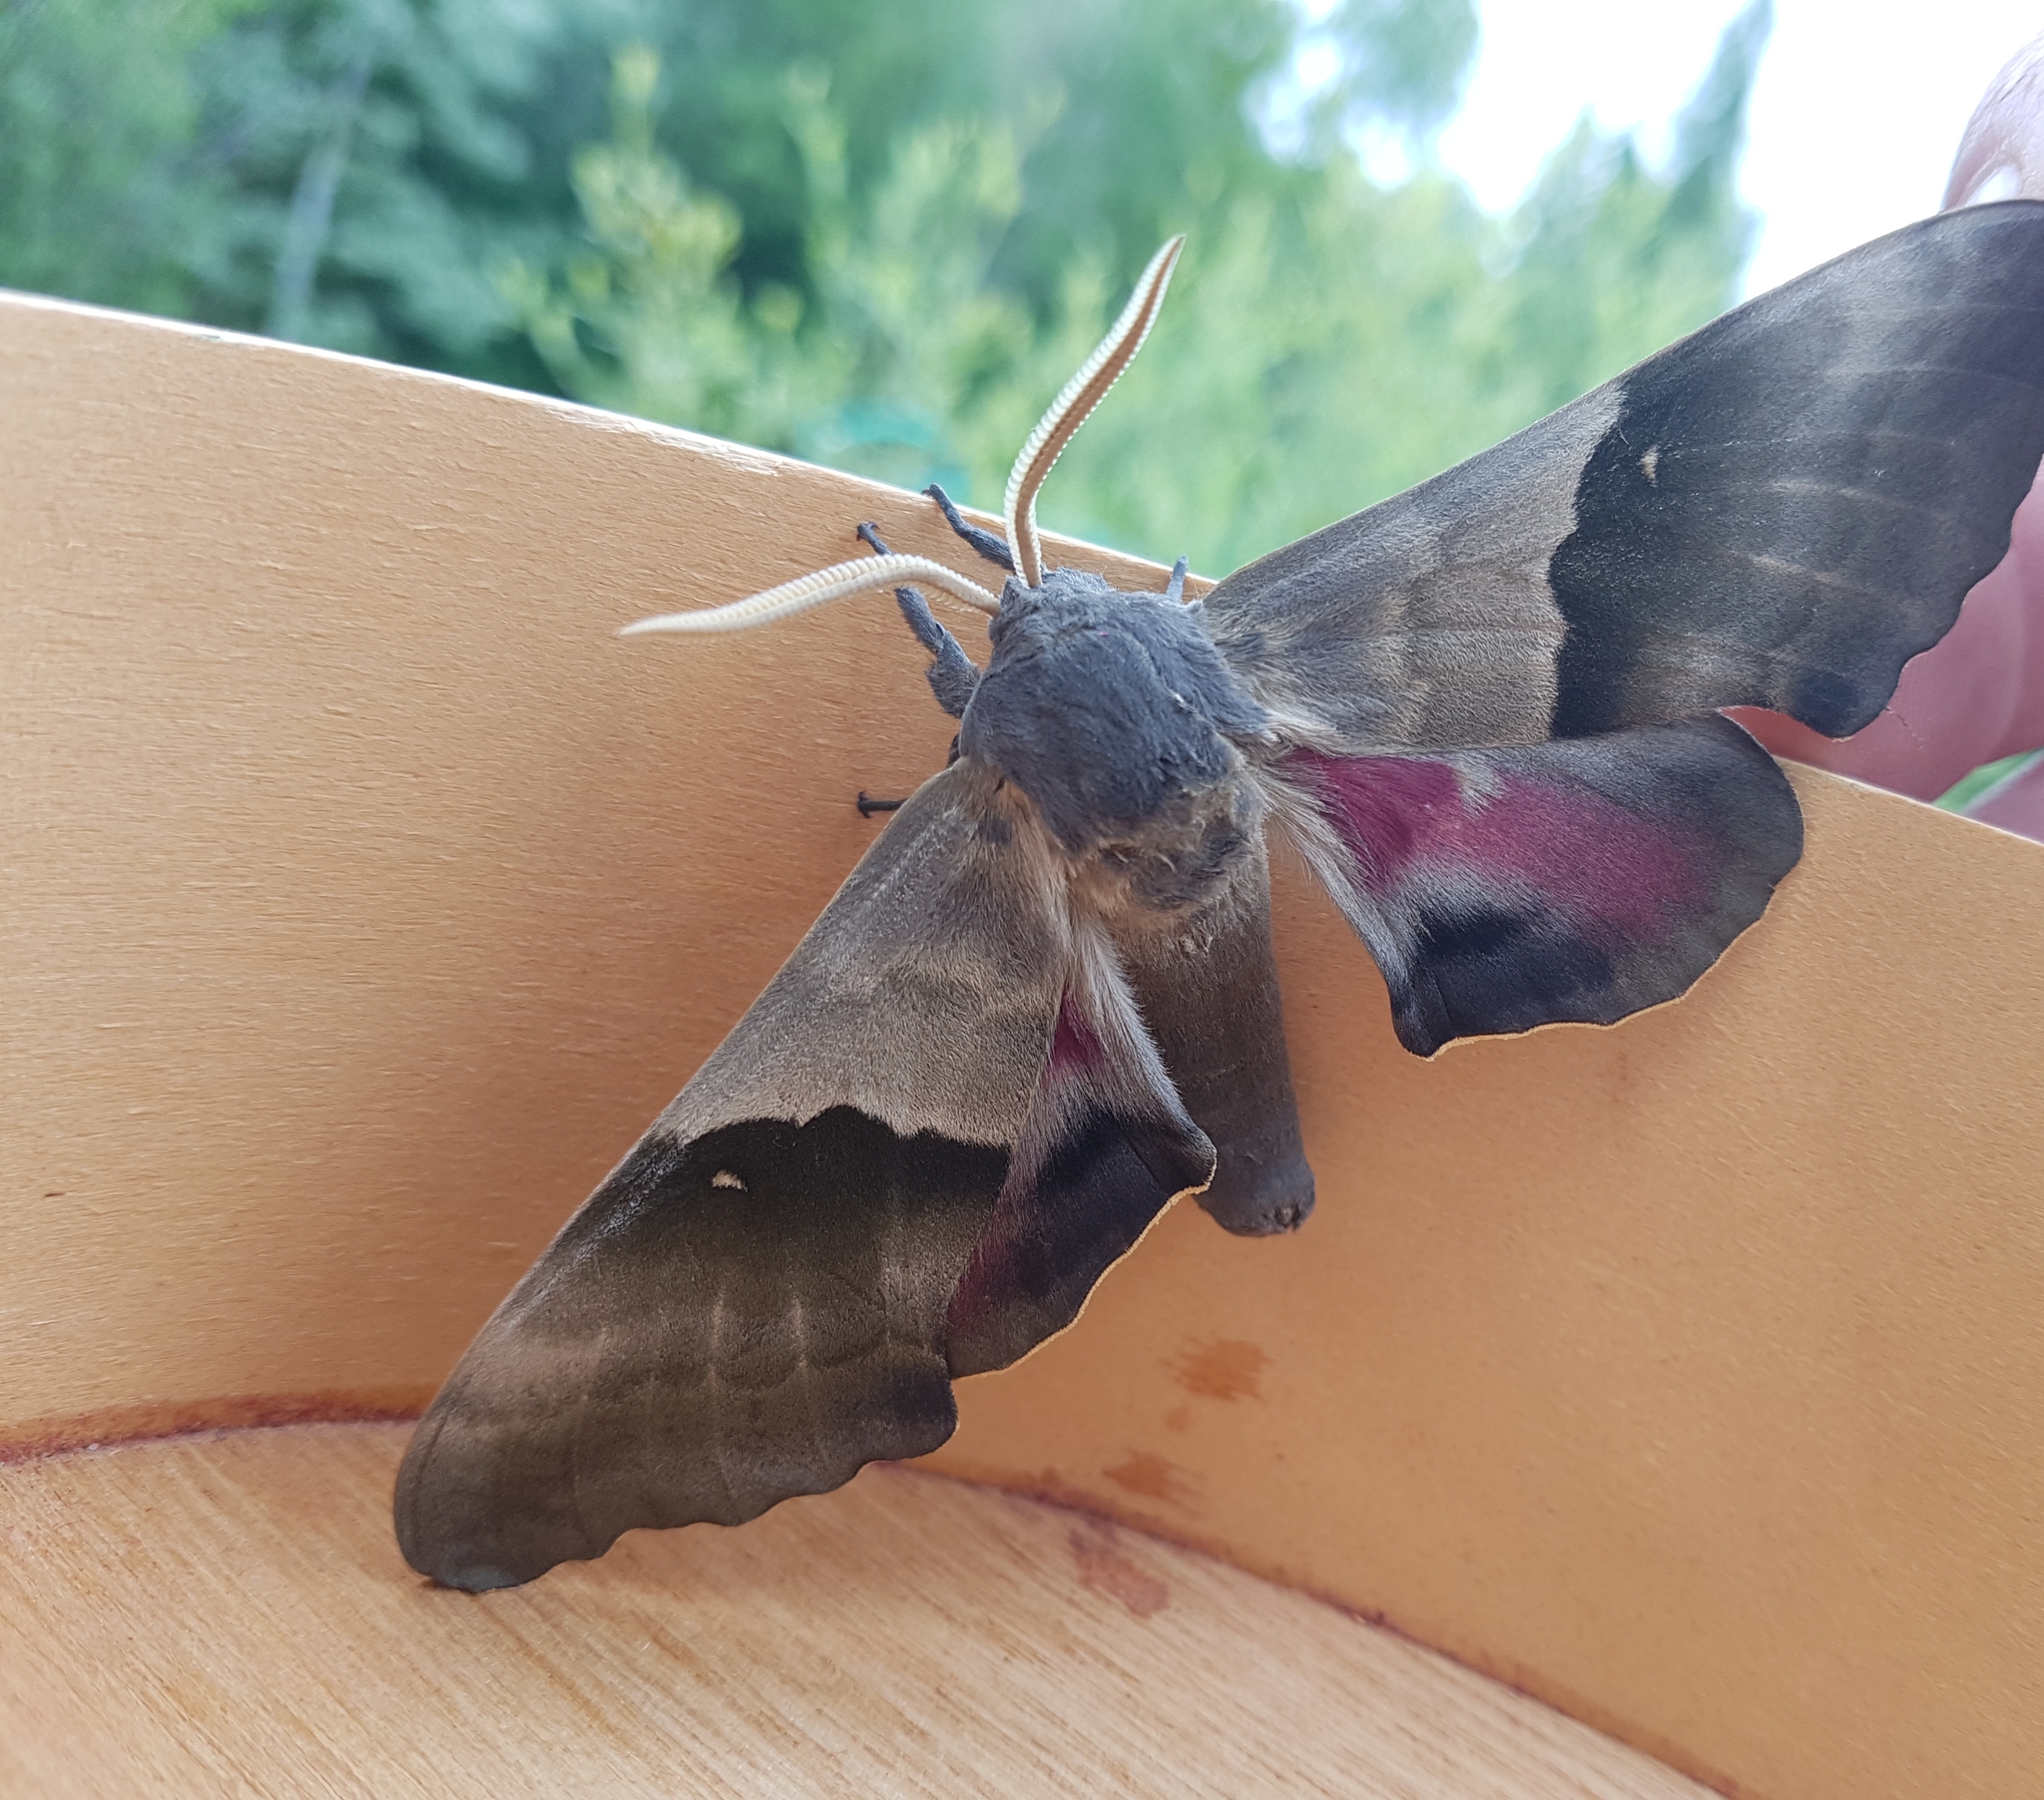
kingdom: Animalia
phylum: Arthropoda
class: Insecta
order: Lepidoptera
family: Sphingidae
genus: Pachysphinx
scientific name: Pachysphinx modesta
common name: Big poplar sphinx
